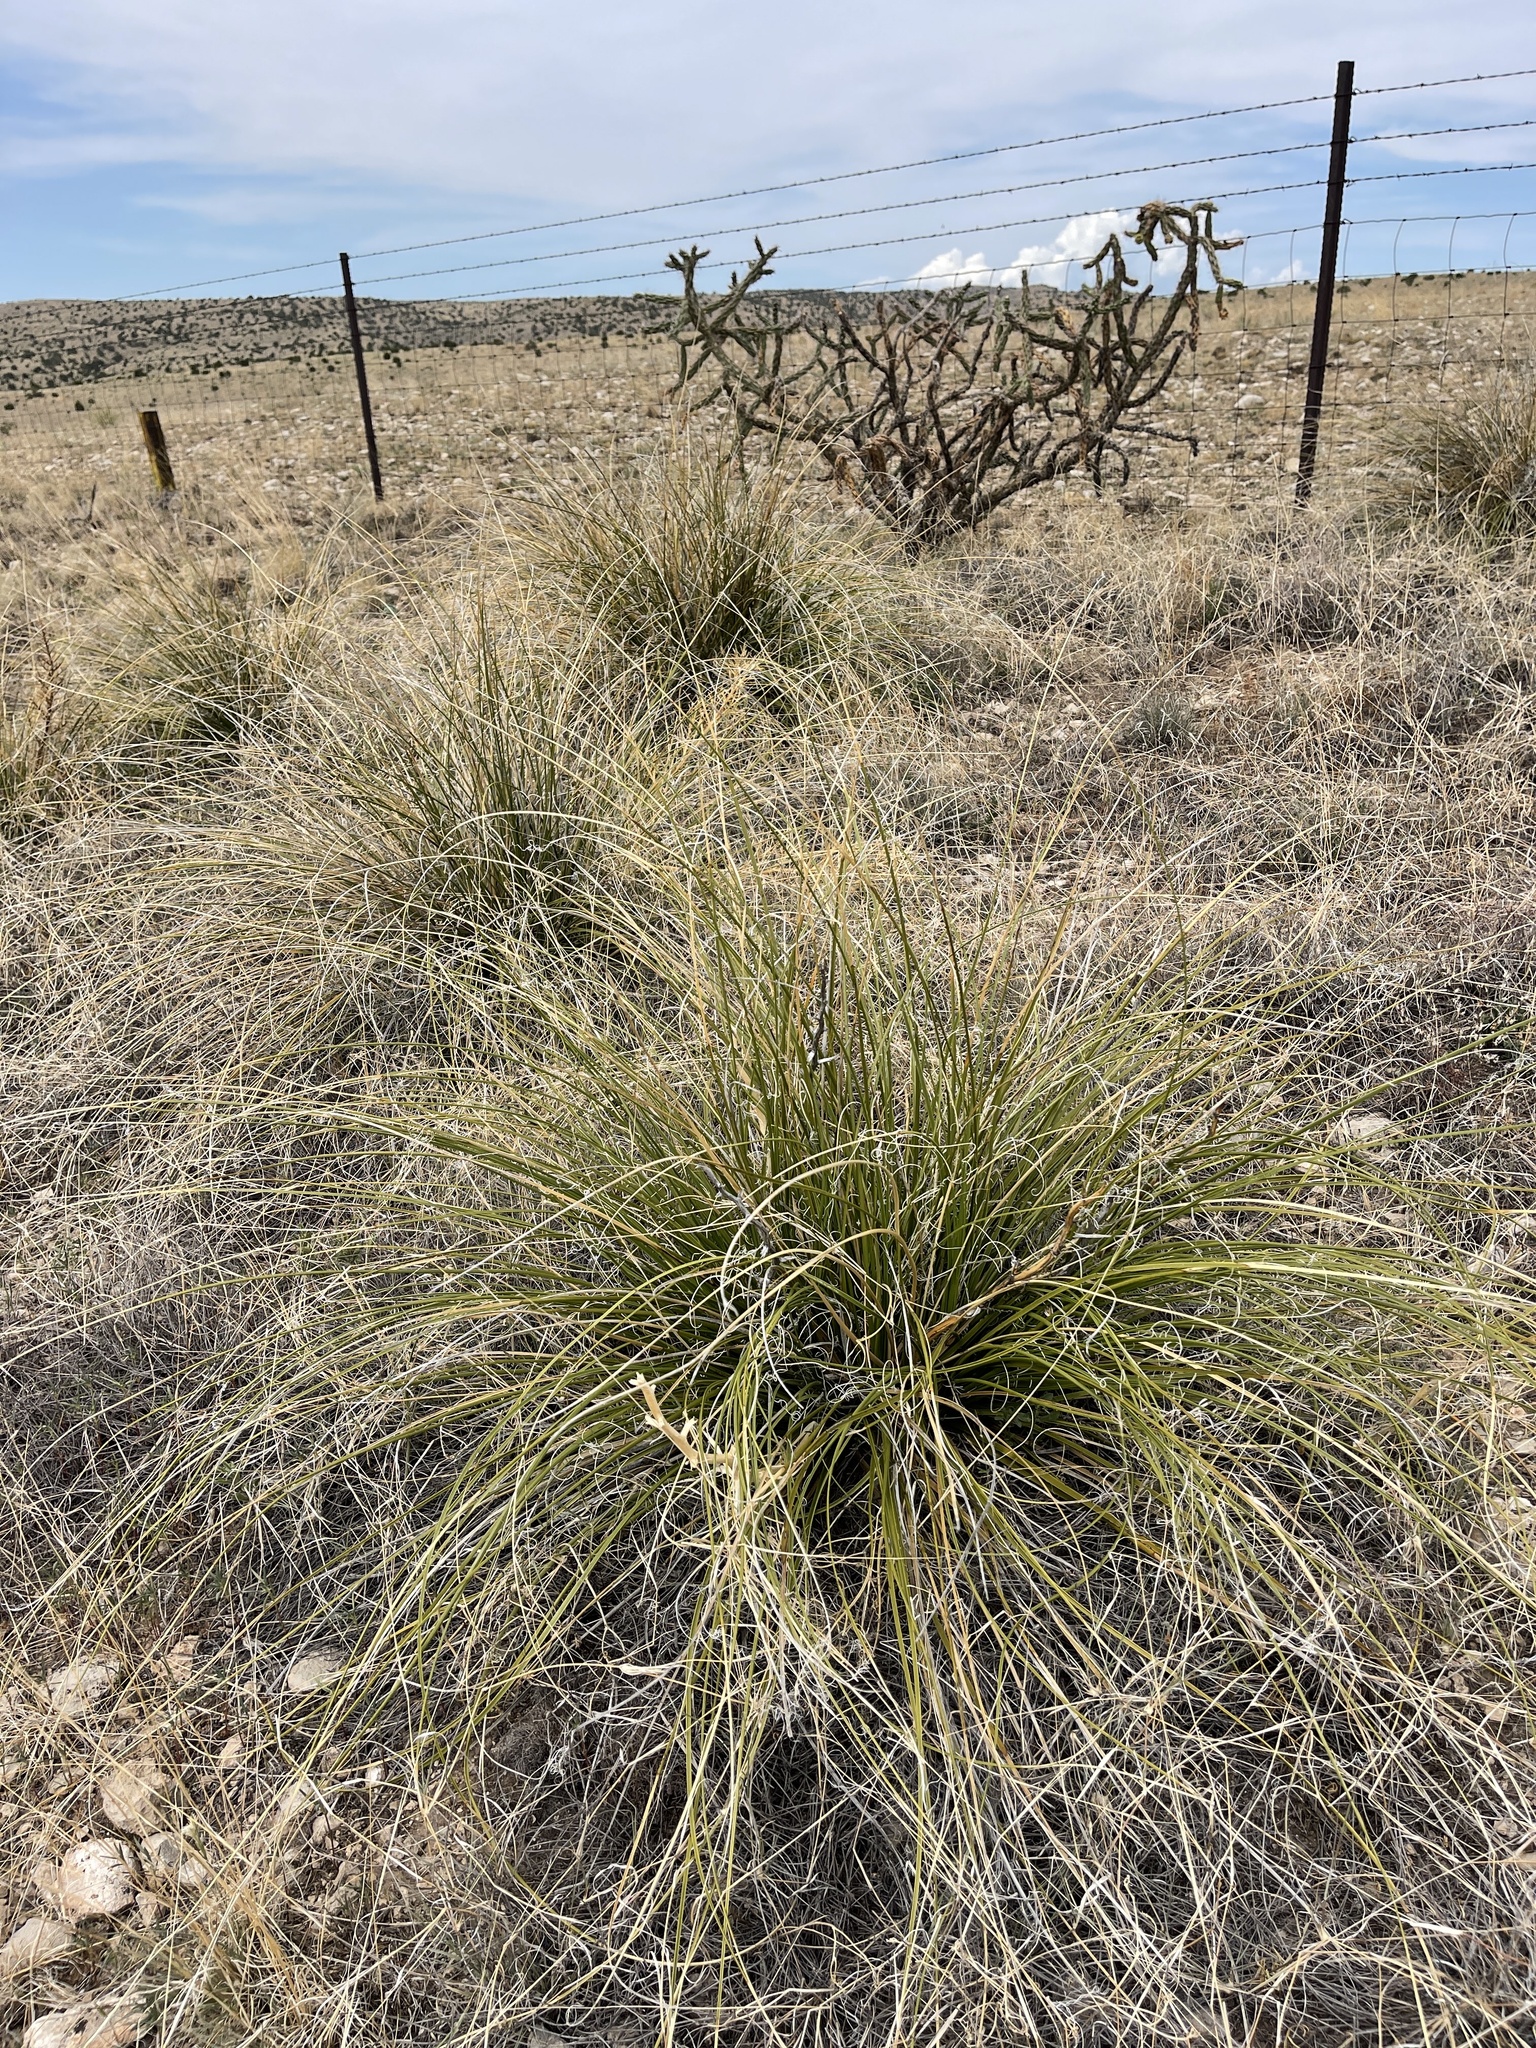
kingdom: Plantae
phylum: Tracheophyta
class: Liliopsida
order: Asparagales
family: Asparagaceae
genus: Nolina
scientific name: Nolina texana
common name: Texas sacahuiste
